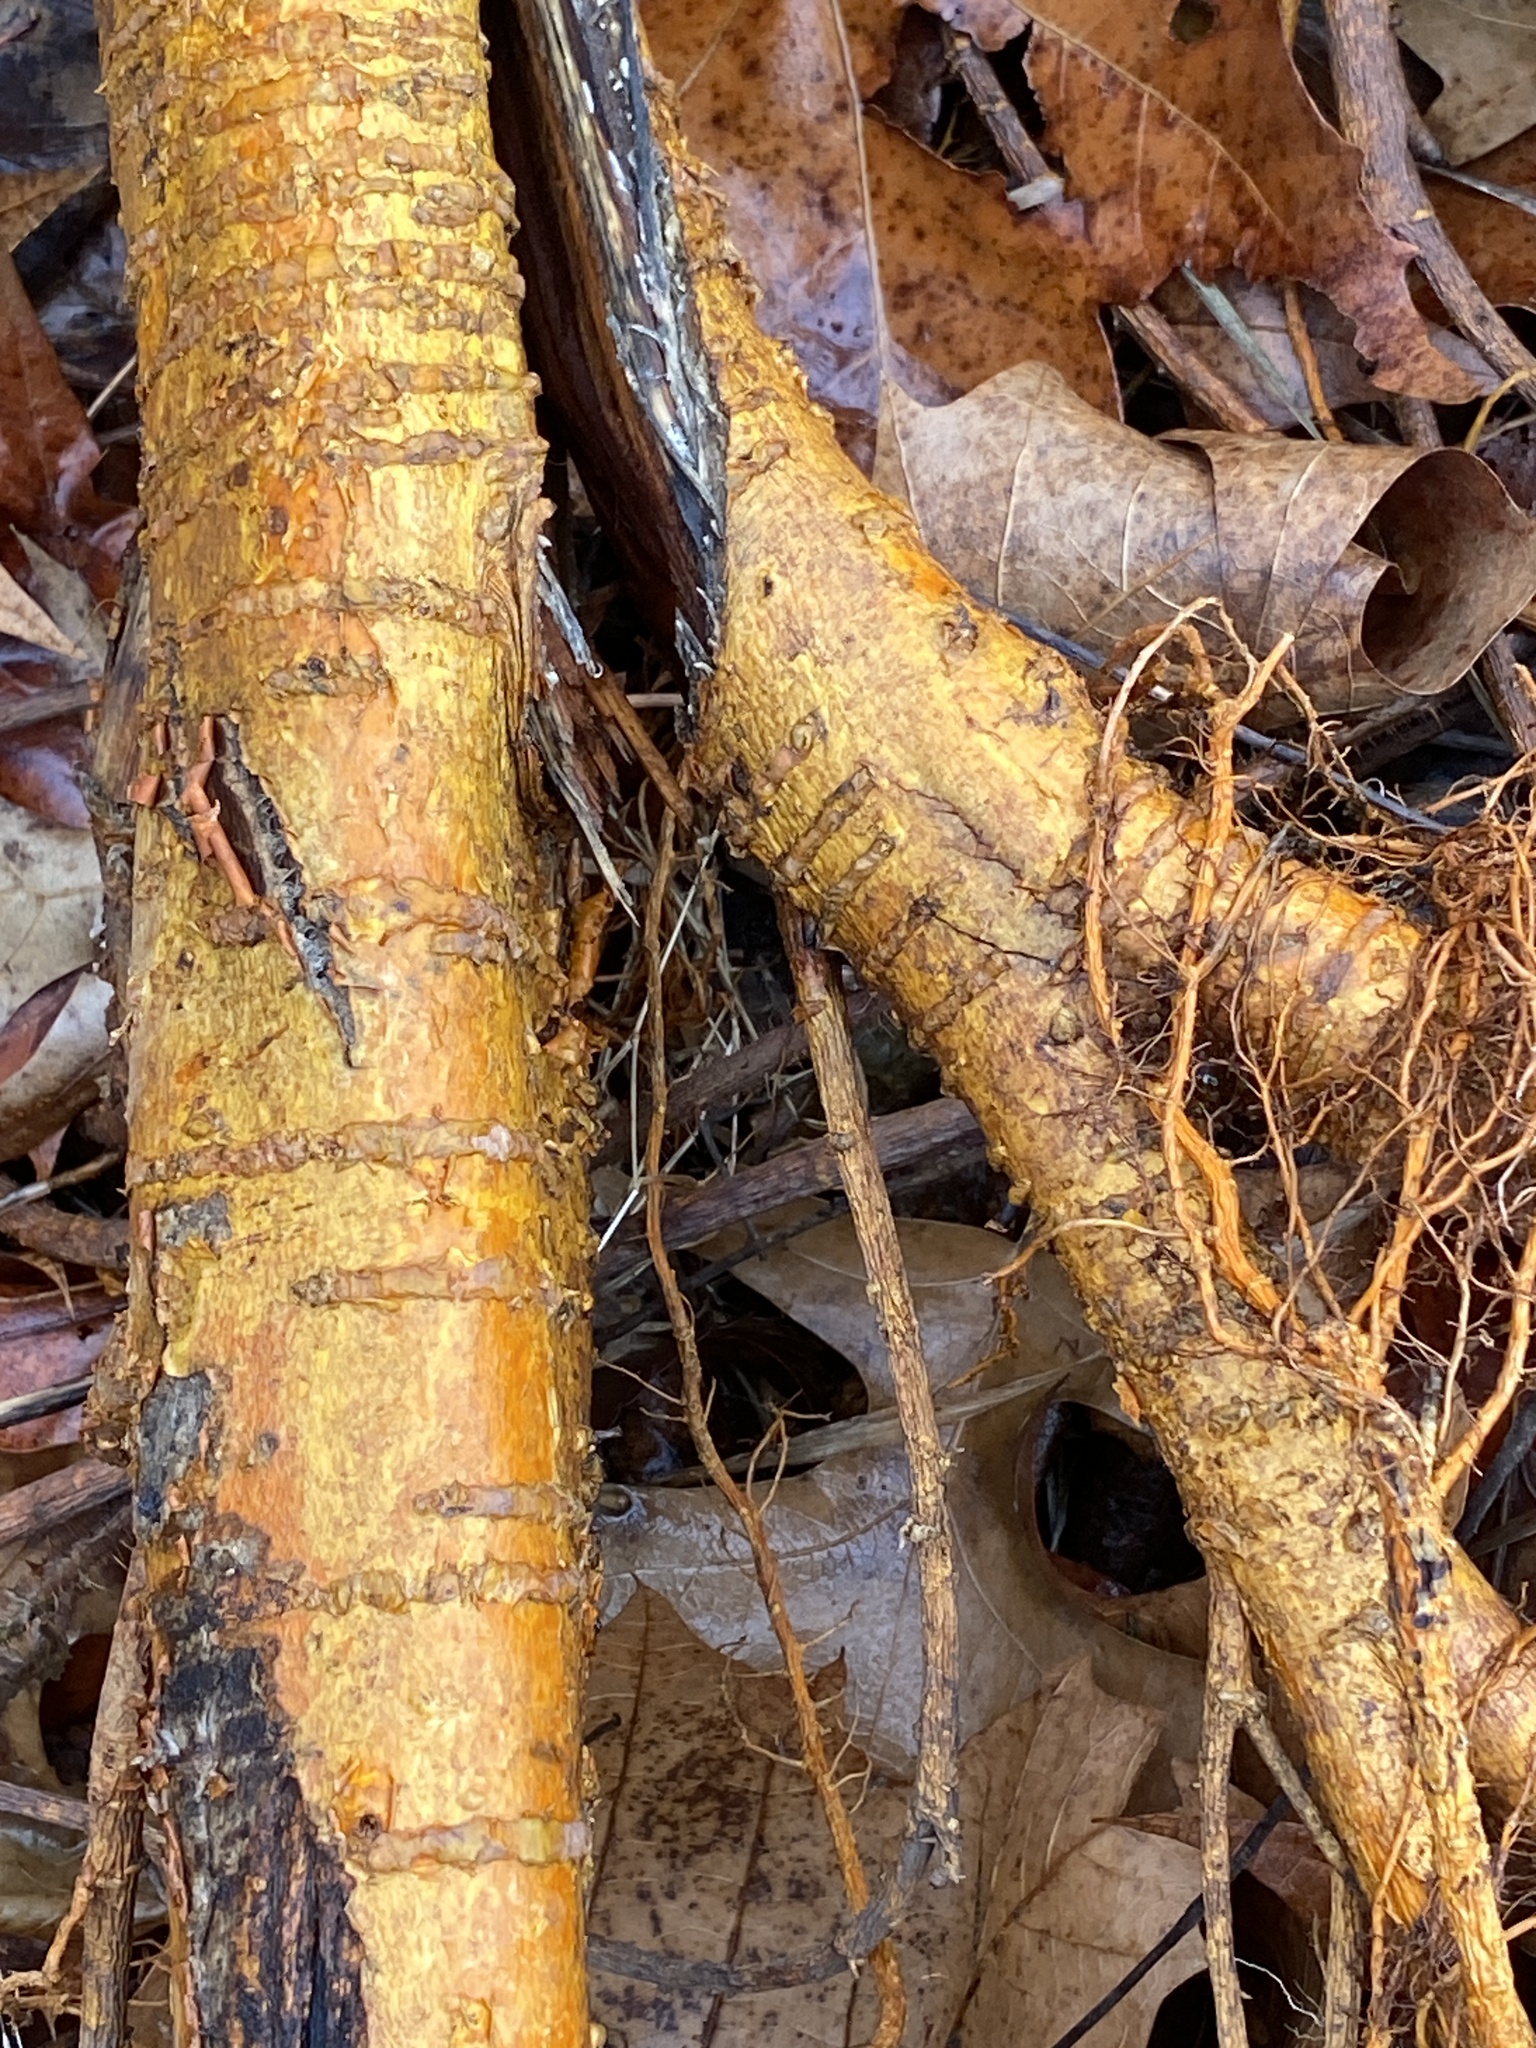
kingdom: Plantae
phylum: Tracheophyta
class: Magnoliopsida
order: Rosales
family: Moraceae
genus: Maclura
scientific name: Maclura pomifera
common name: Osage-orange
